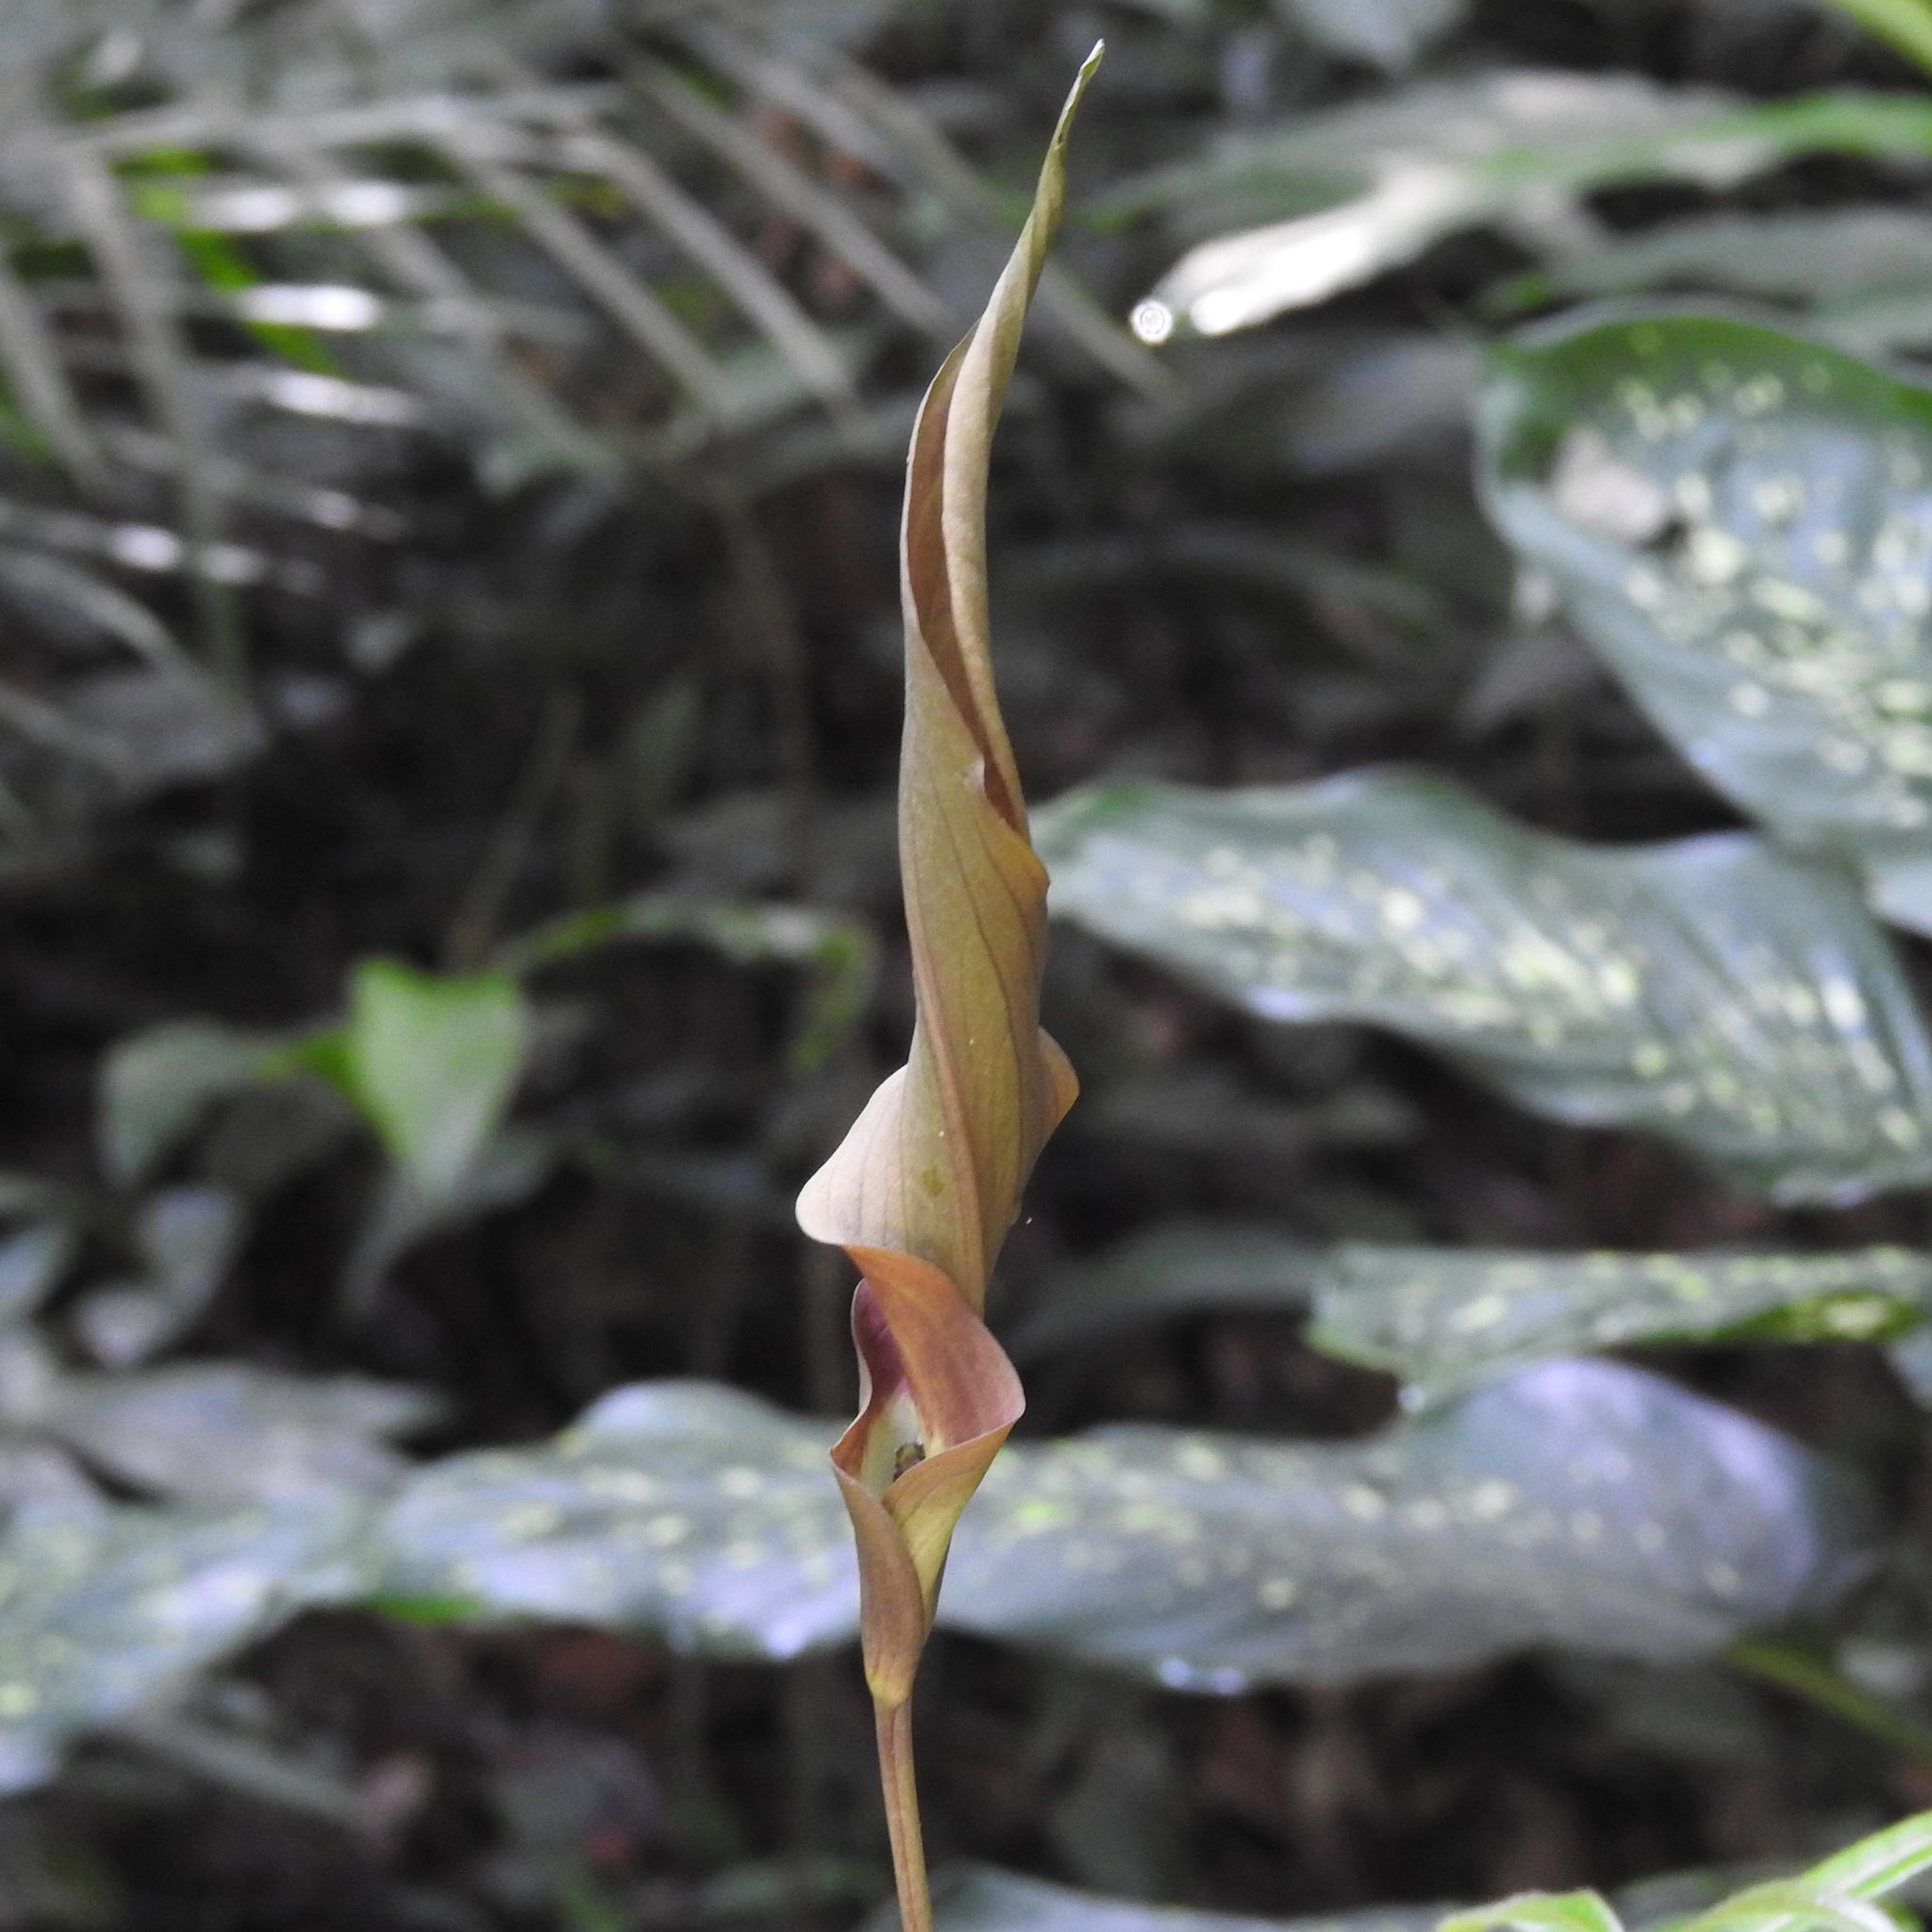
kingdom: Plantae
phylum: Tracheophyta
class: Liliopsida
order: Alismatales
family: Araceae
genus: Anaphyllum
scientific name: Anaphyllum wightii
